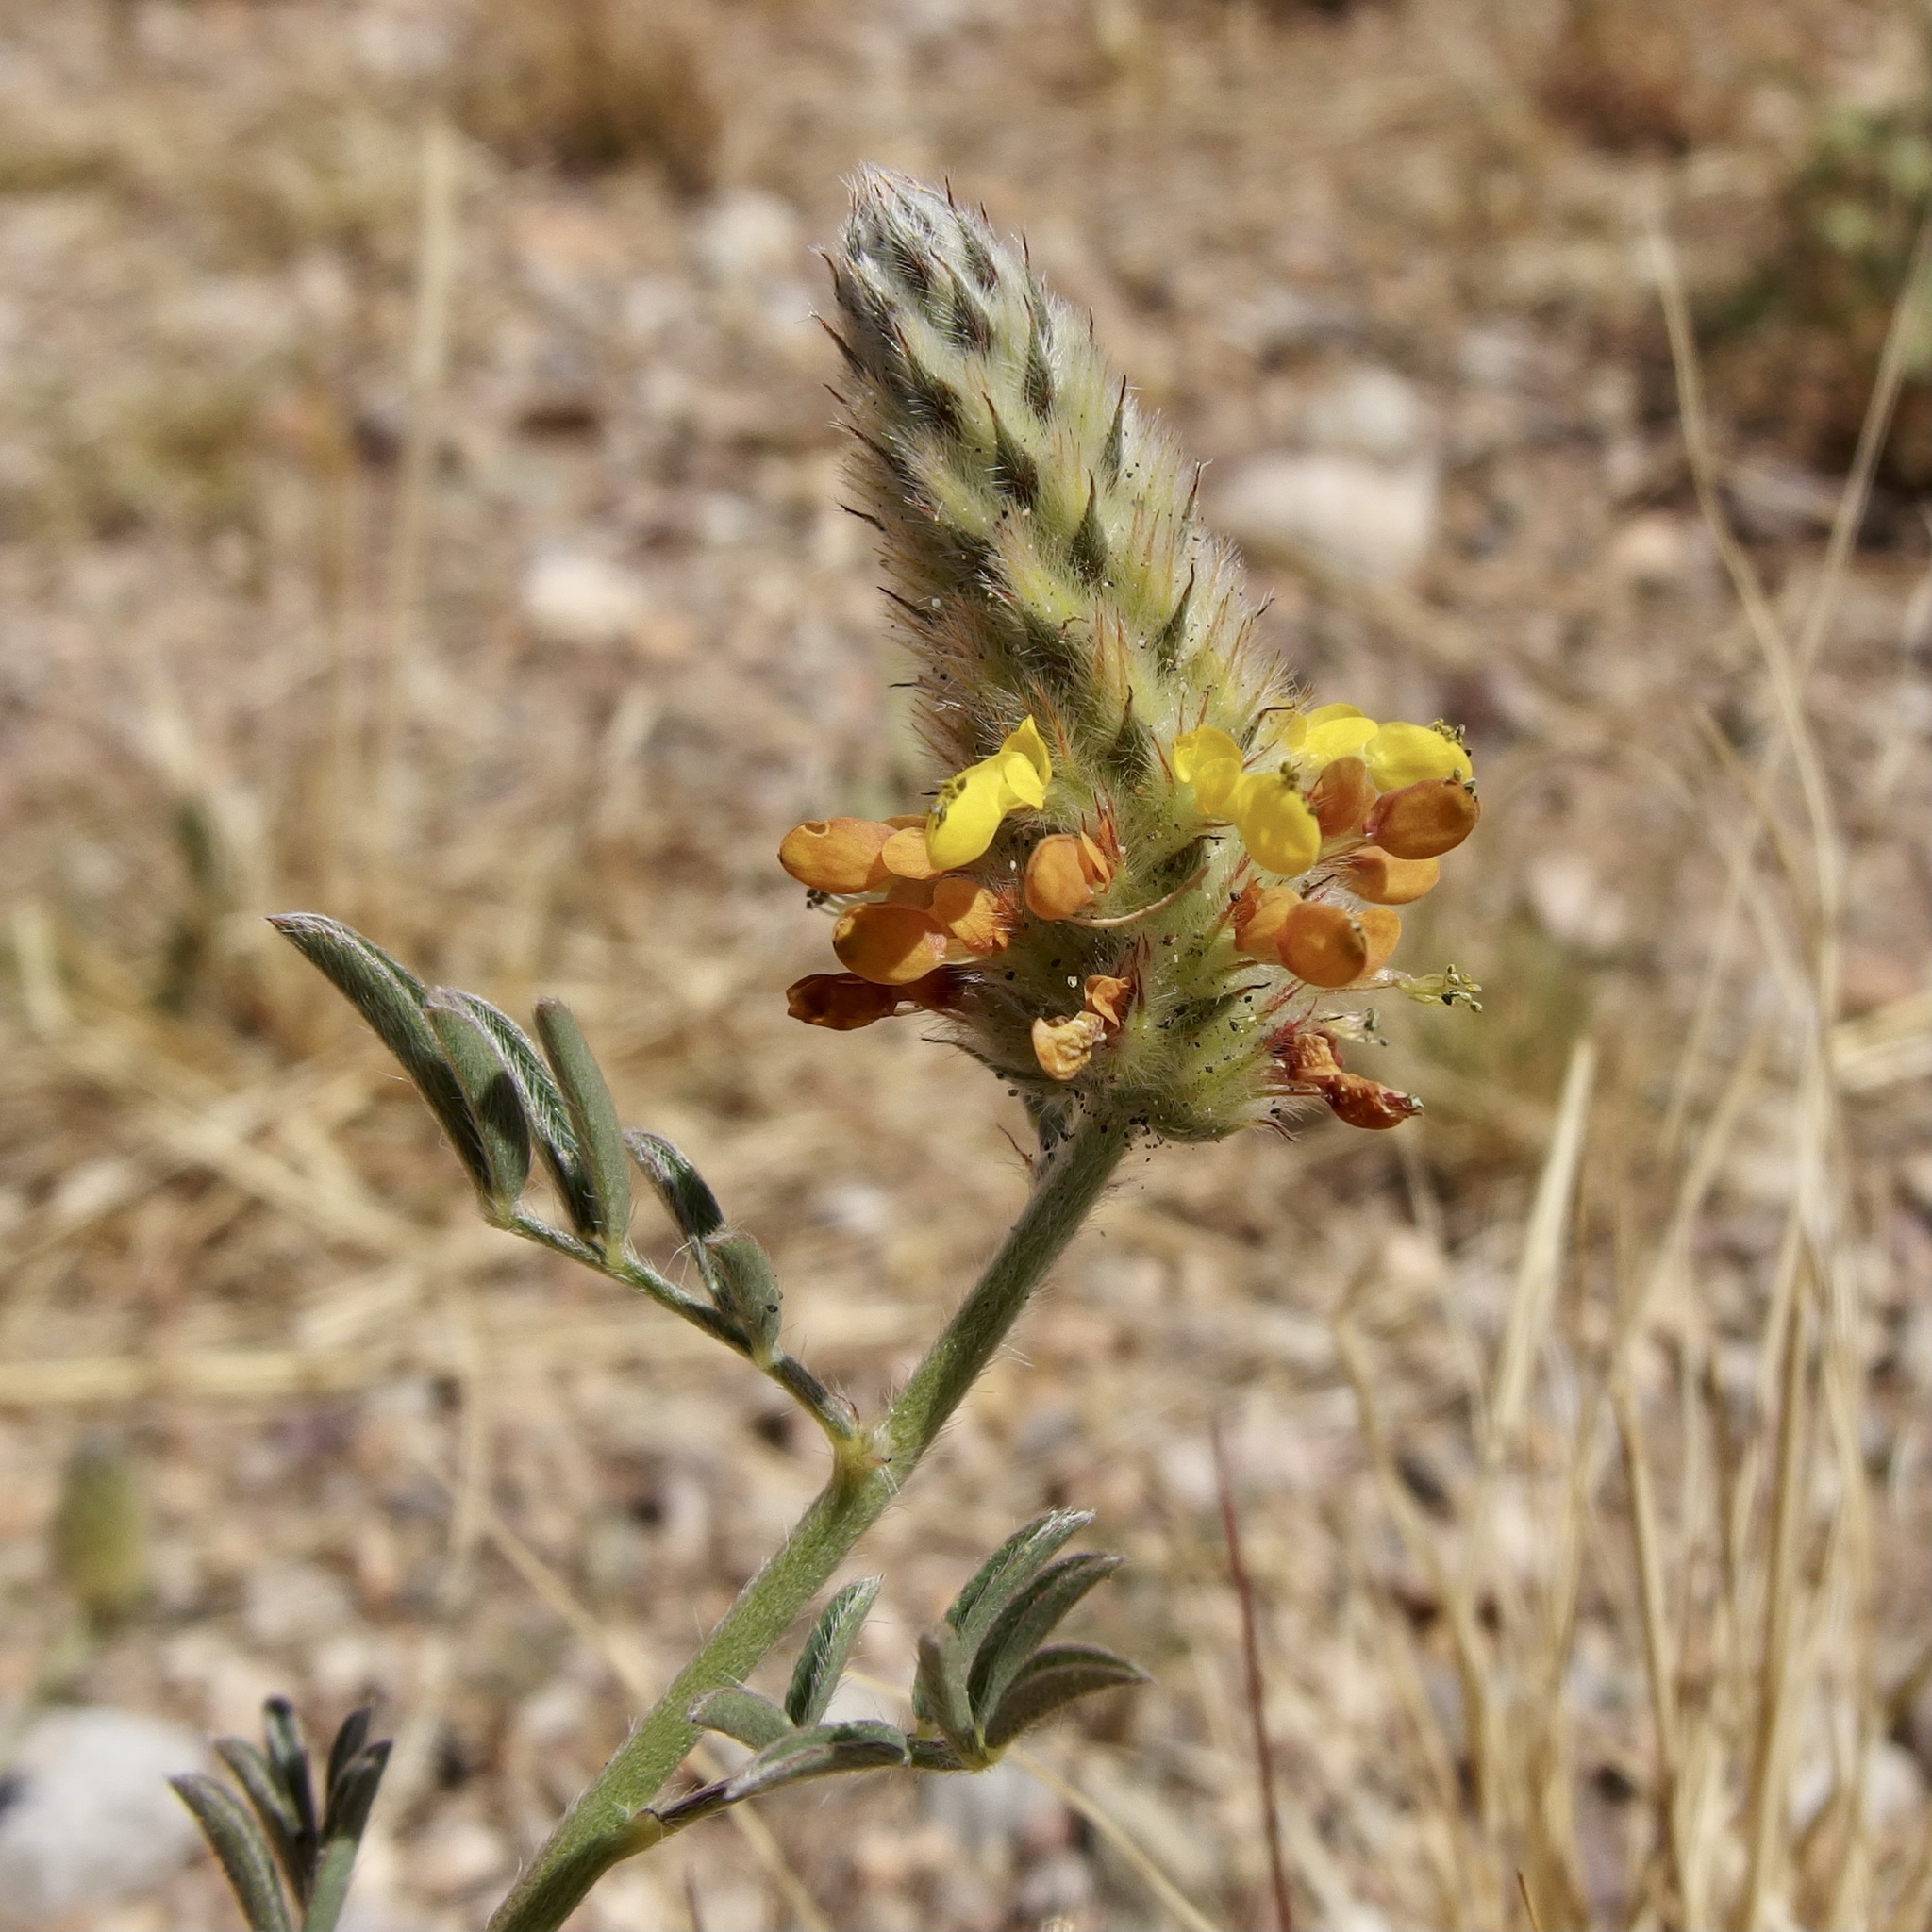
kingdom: Plantae
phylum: Tracheophyta
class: Magnoliopsida
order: Fabales
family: Fabaceae
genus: Dalea
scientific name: Dalea nana
